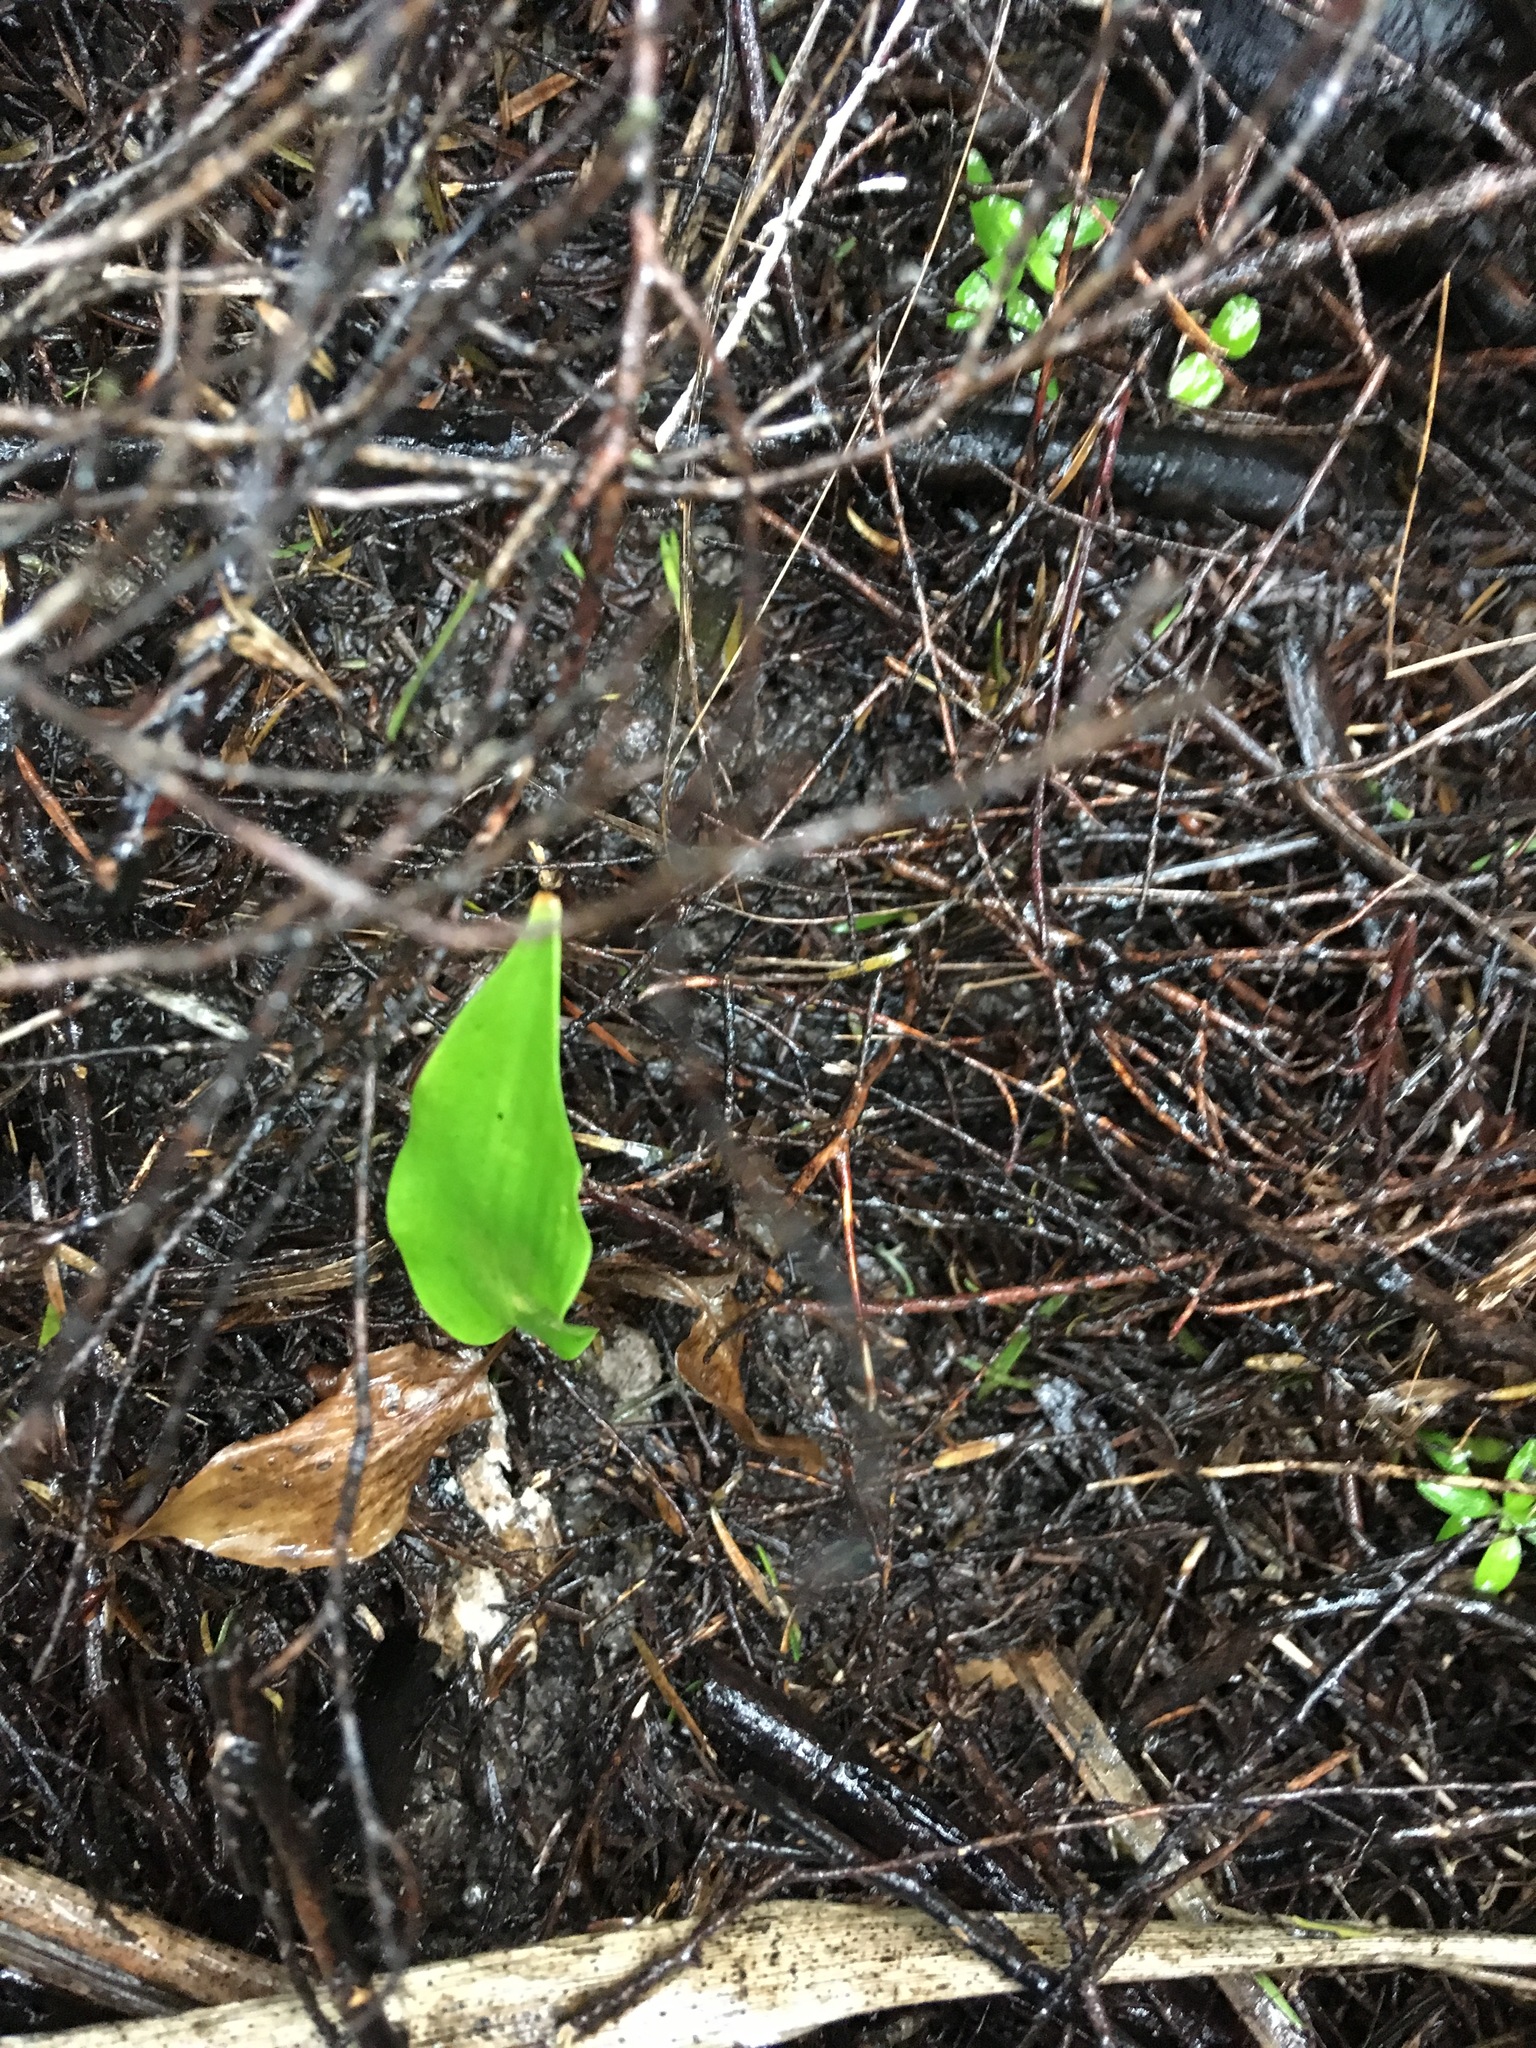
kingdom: Plantae
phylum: Tracheophyta
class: Liliopsida
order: Zingiberales
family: Zingiberaceae
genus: Hedychium
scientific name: Hedychium gardnerianum
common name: Himalayan ginger
